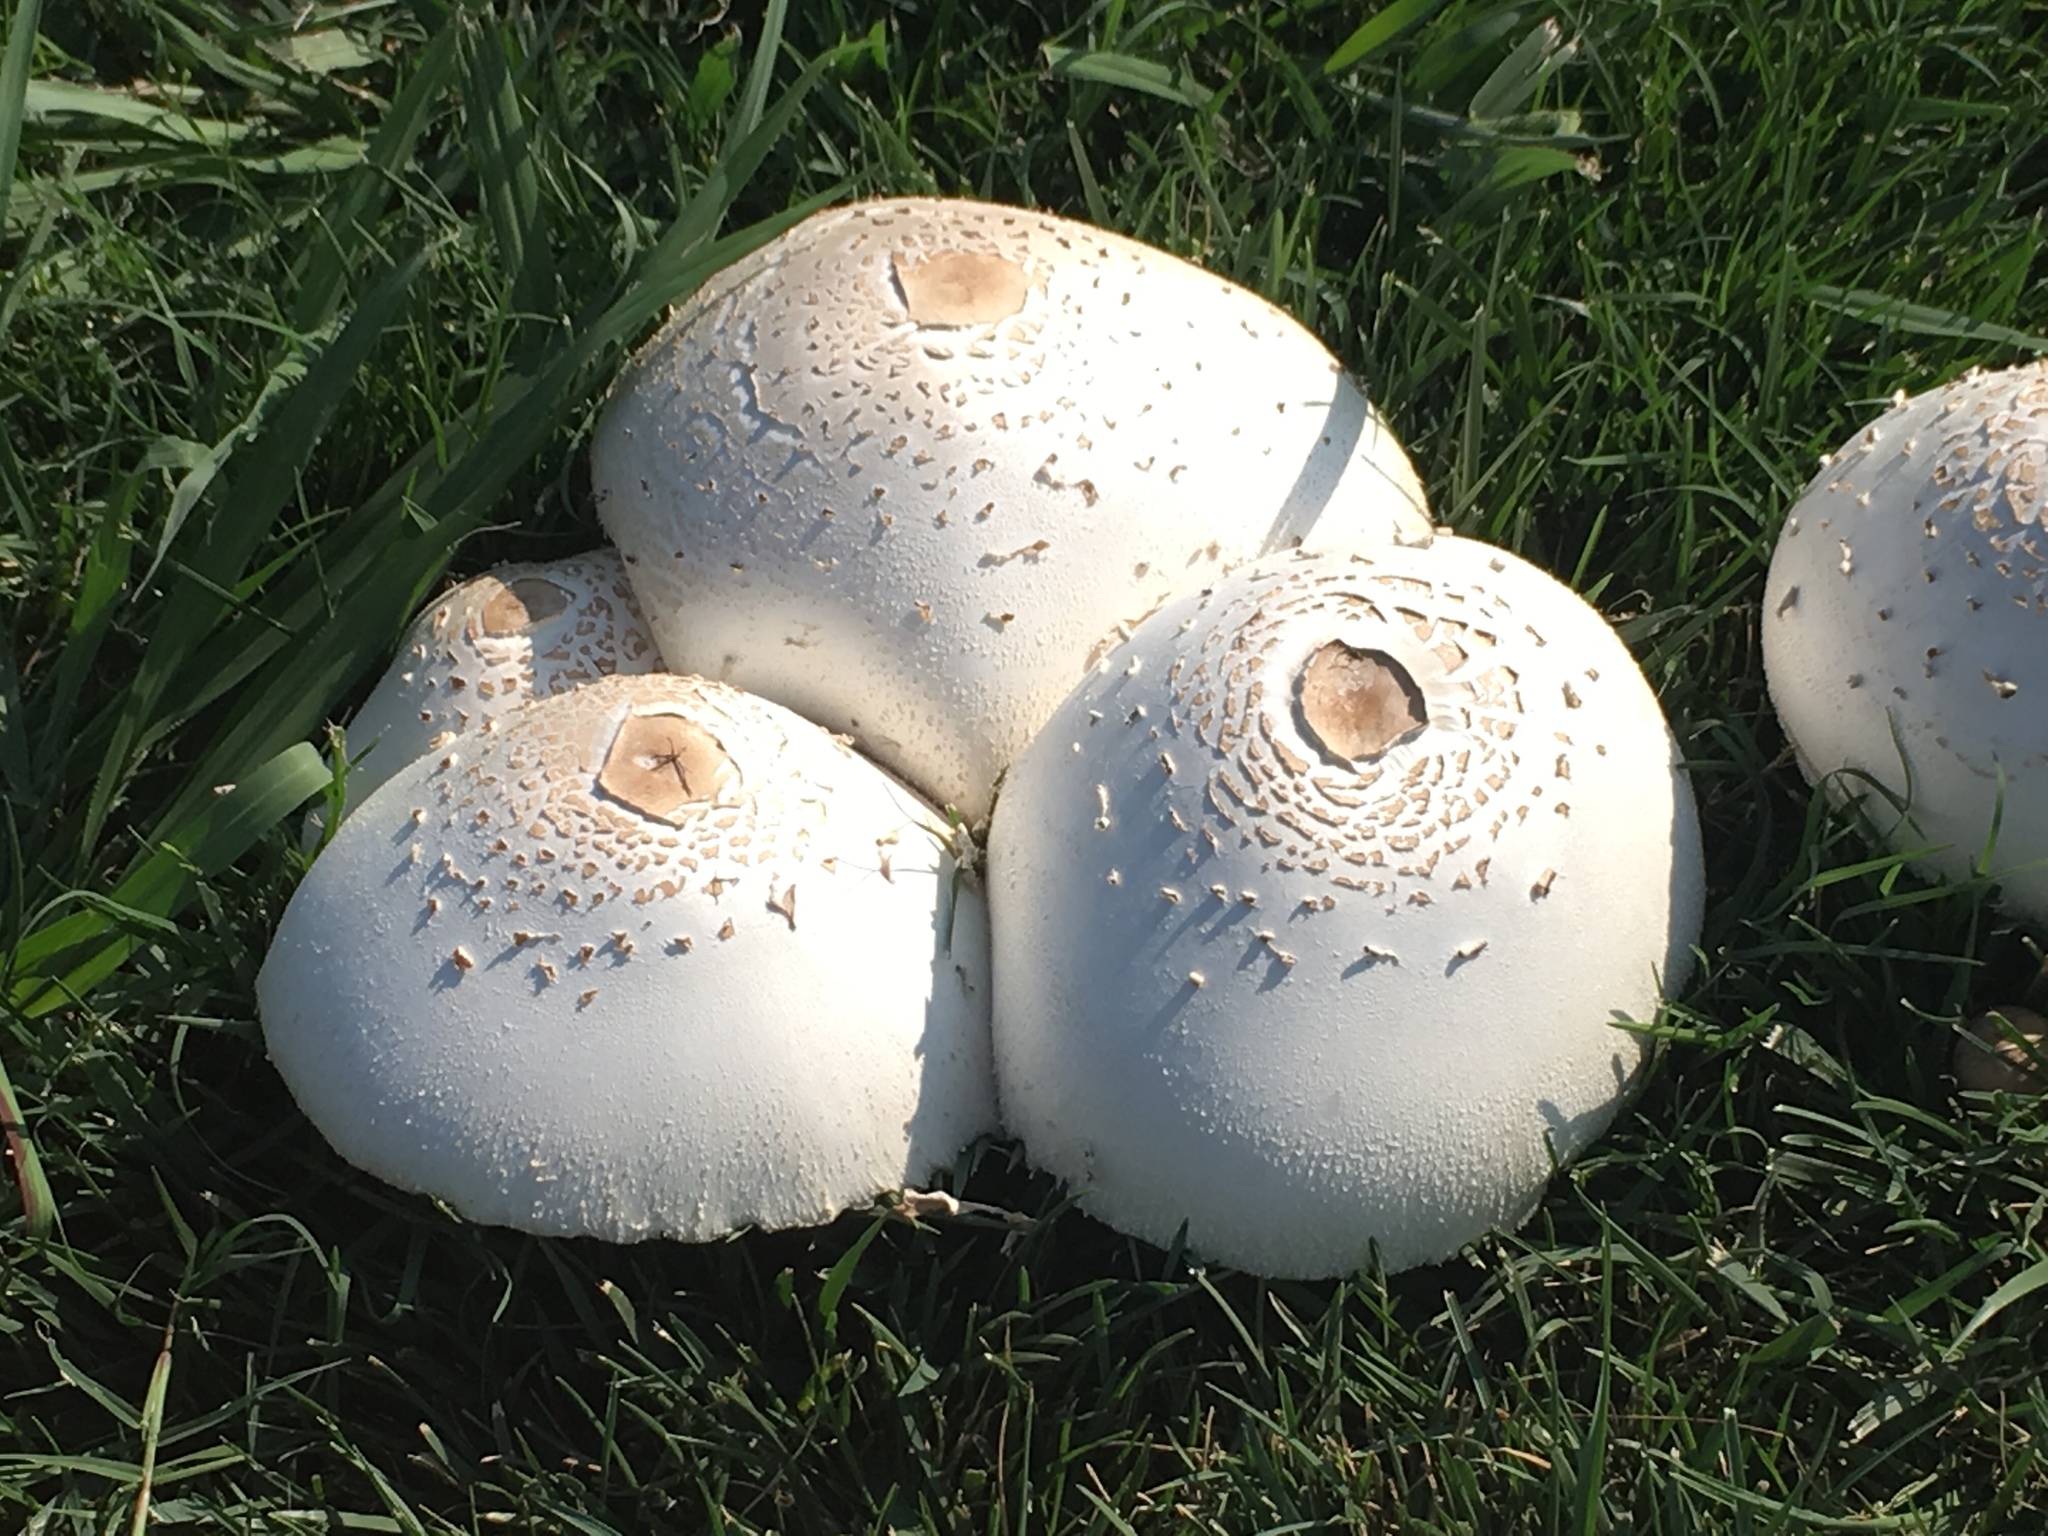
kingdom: Fungi
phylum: Basidiomycota
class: Agaricomycetes
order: Agaricales
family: Agaricaceae
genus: Chlorophyllum
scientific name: Chlorophyllum molybdites
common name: False parasol
